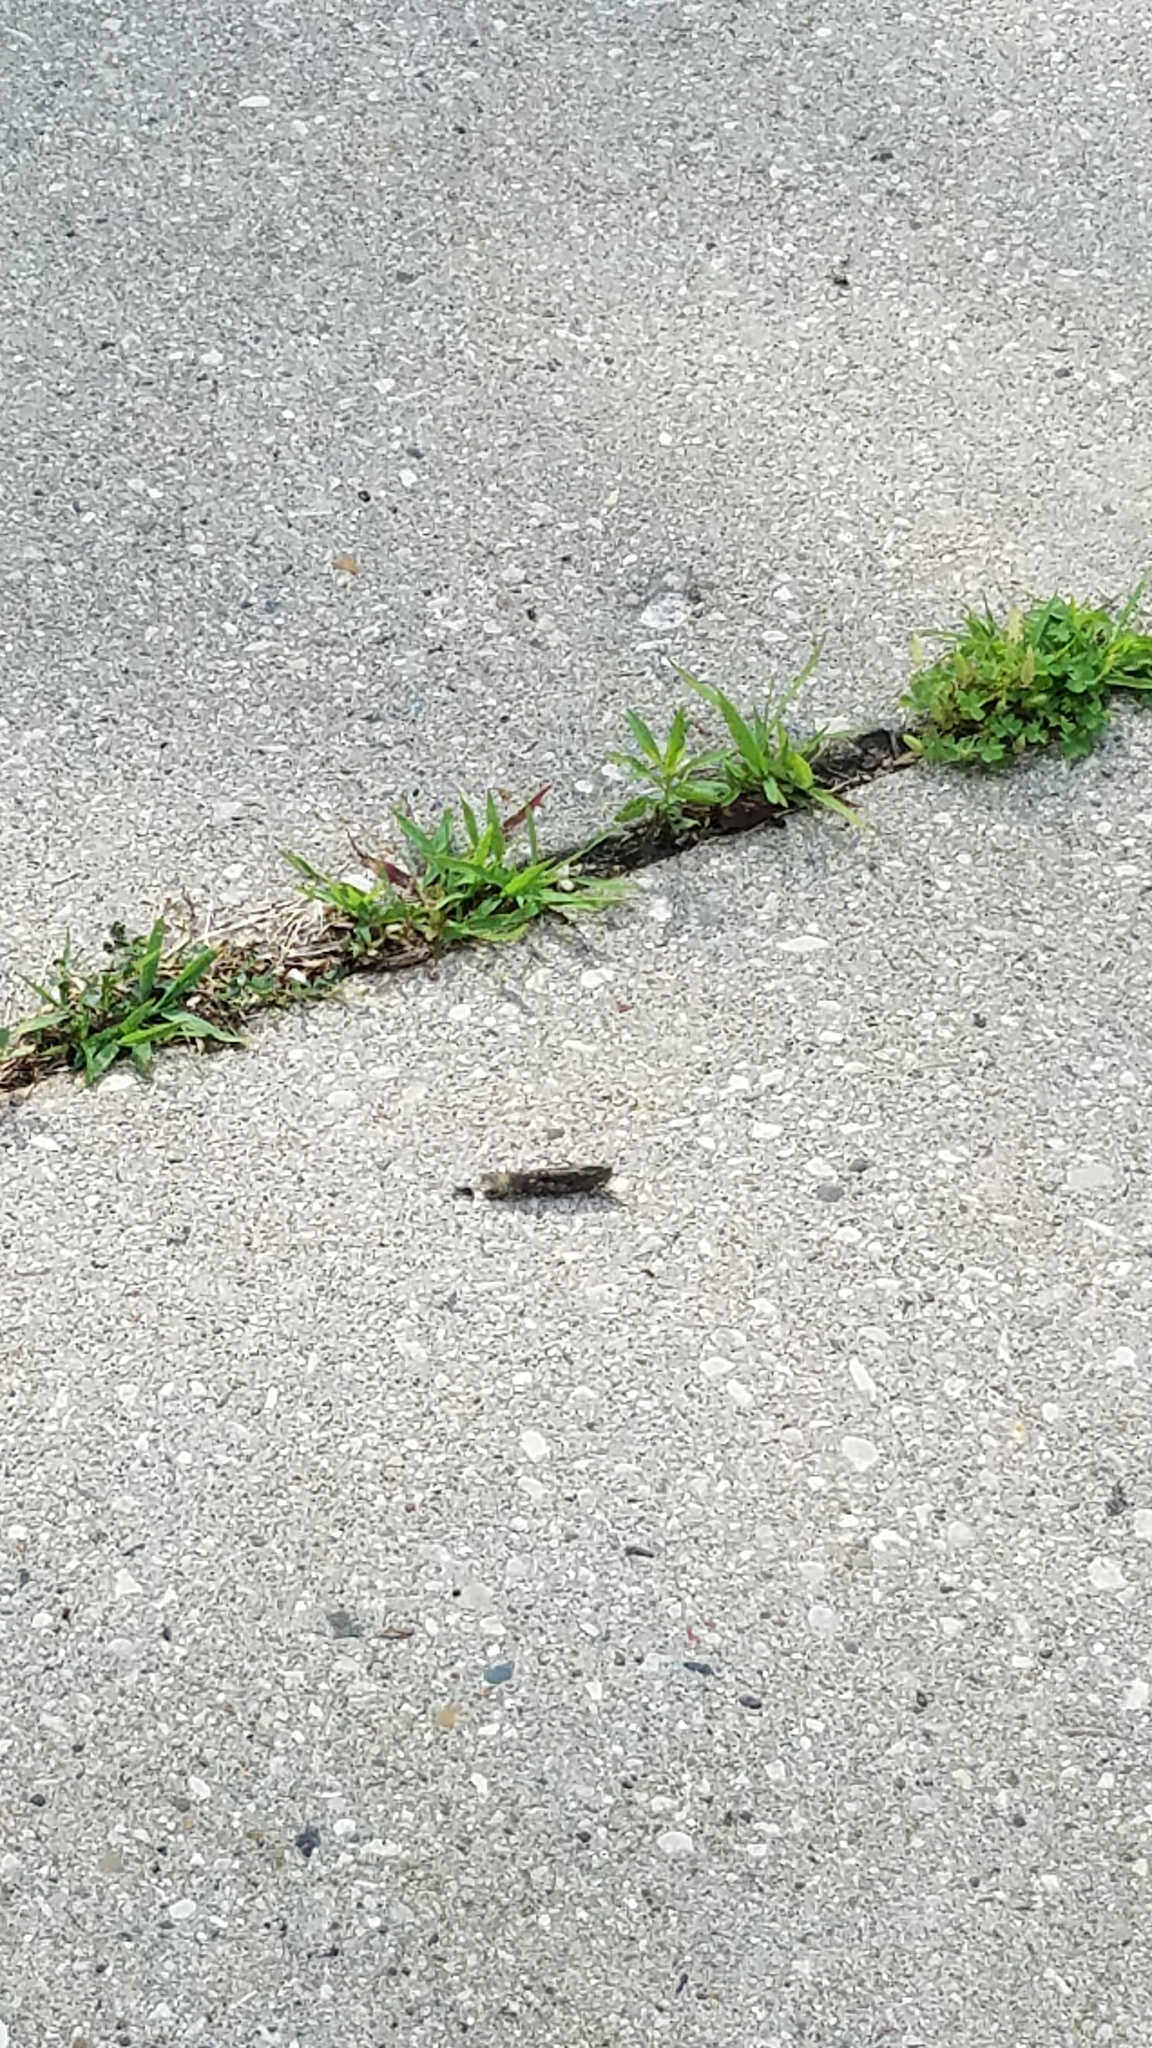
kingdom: Animalia
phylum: Arthropoda
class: Insecta
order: Orthoptera
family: Acrididae
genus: Dissosteira
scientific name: Dissosteira carolina
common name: Carolina grasshopper
